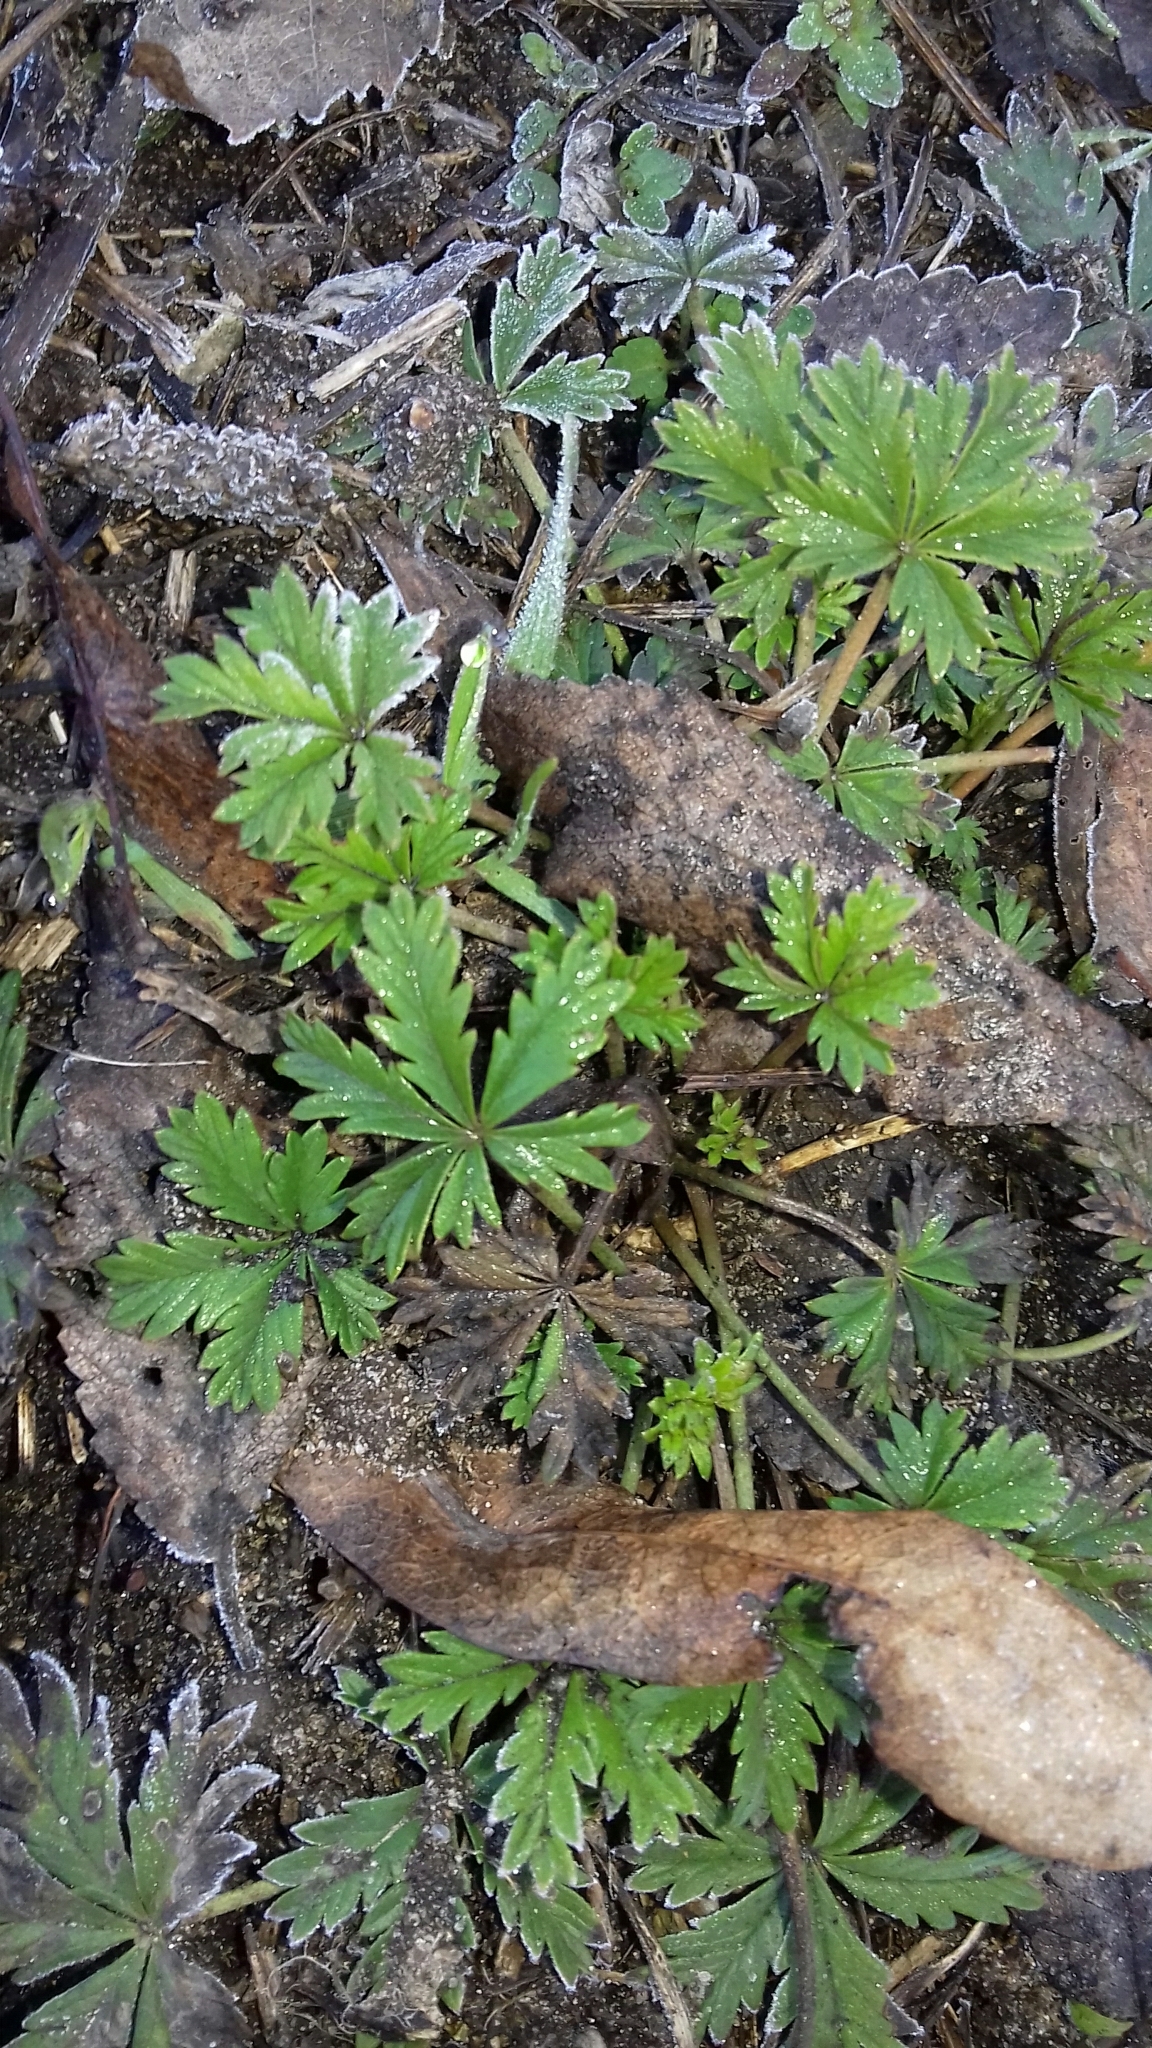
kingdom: Plantae
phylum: Tracheophyta
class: Magnoliopsida
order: Rosales
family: Rosaceae
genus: Potentilla
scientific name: Potentilla argentea
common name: Hoary cinquefoil
